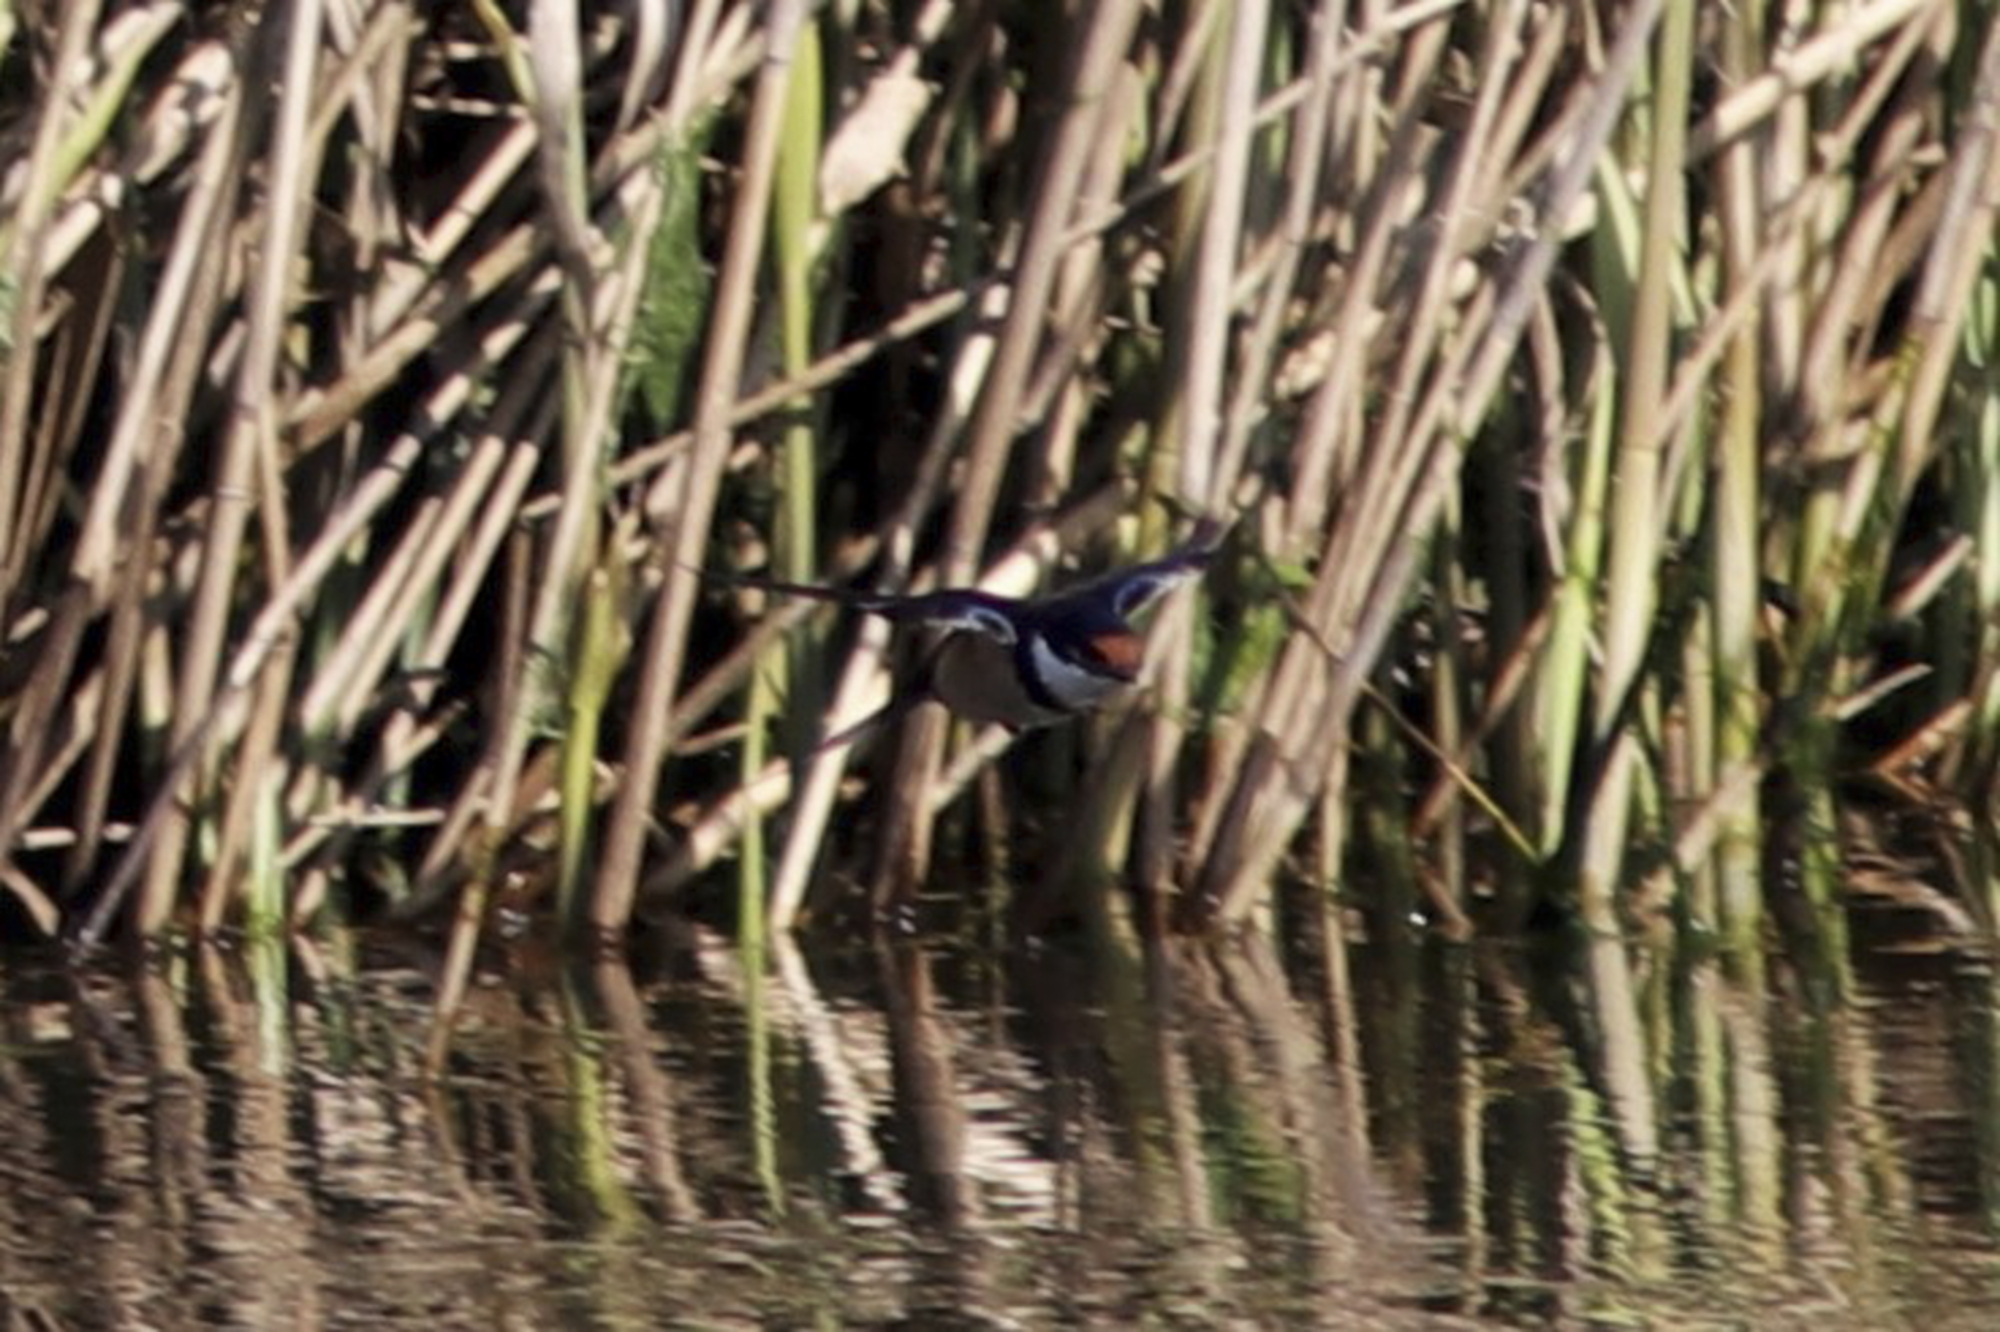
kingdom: Animalia
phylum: Chordata
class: Aves
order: Passeriformes
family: Hirundinidae
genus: Hirundo
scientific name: Hirundo albigularis
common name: White-throated swallow
